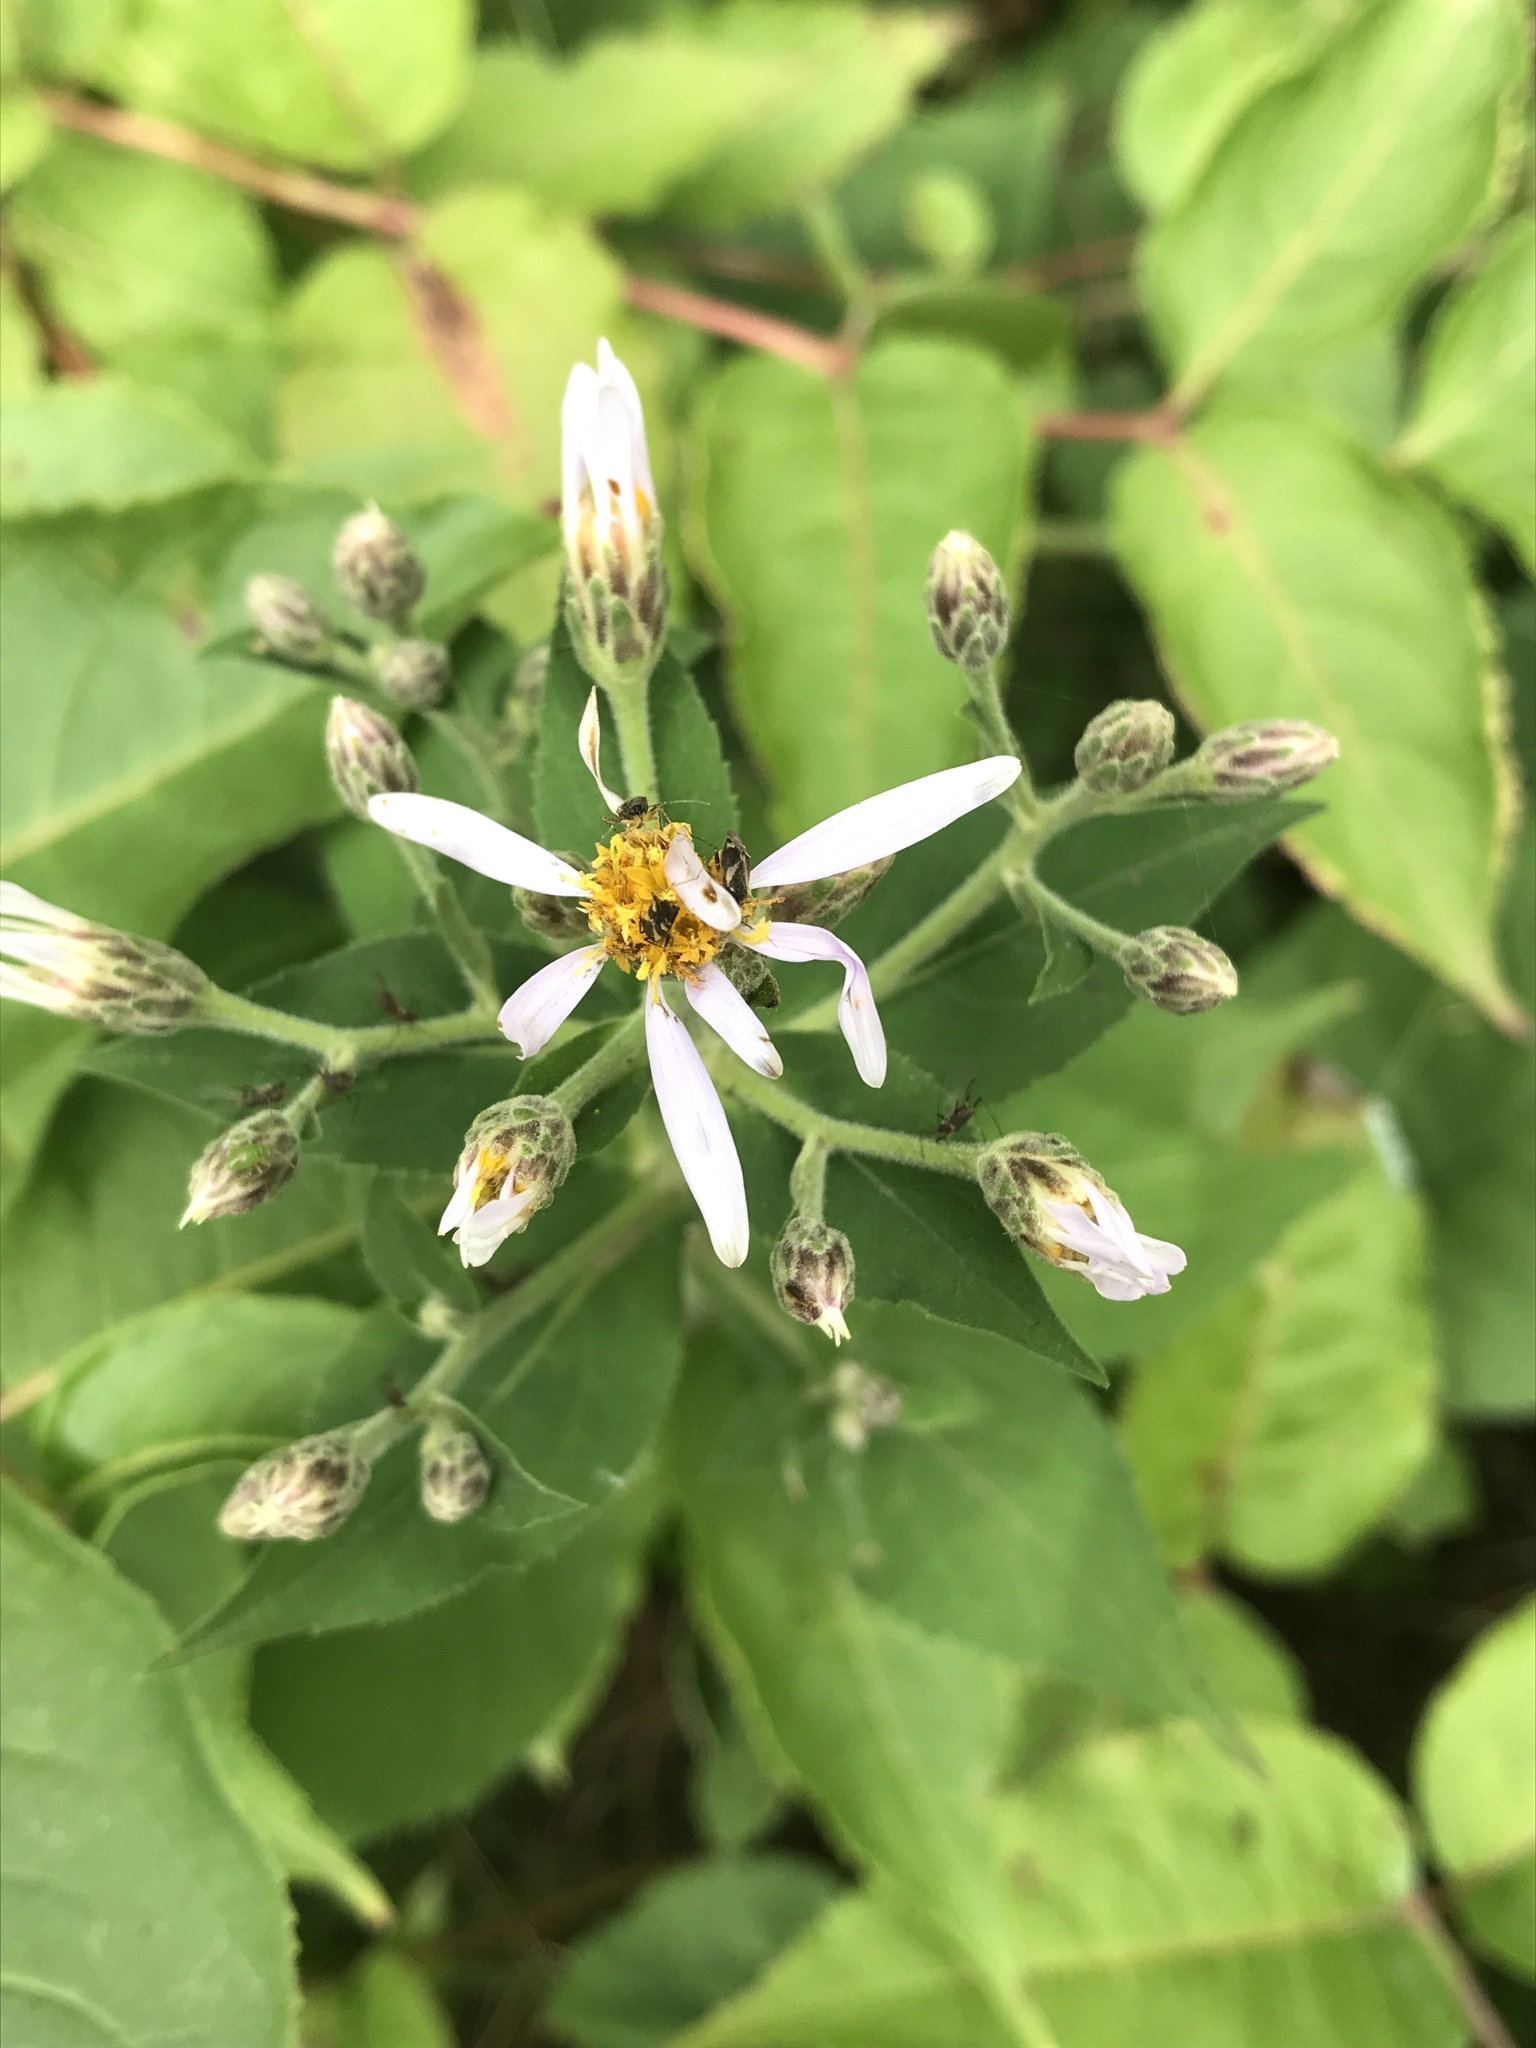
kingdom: Plantae
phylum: Tracheophyta
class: Magnoliopsida
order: Asterales
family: Asteraceae
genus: Eurybia
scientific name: Eurybia macrophylla
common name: Big-leaved aster
